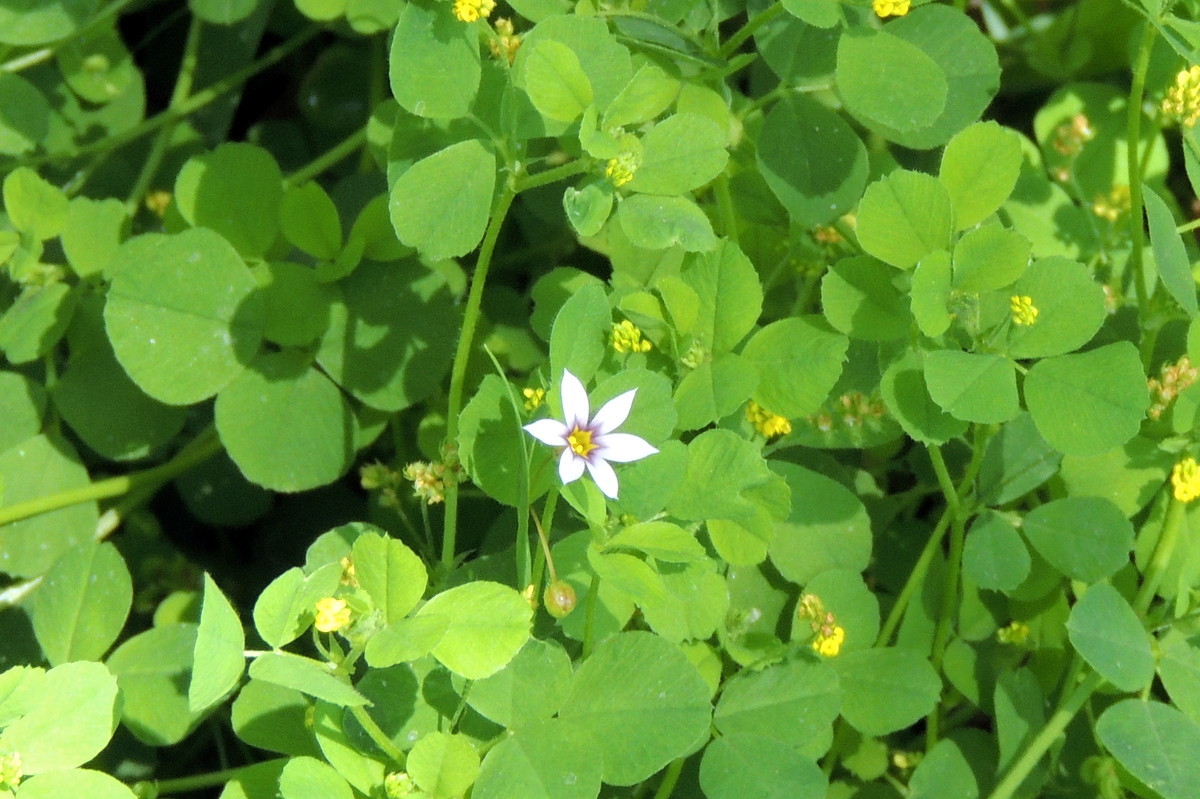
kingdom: Plantae
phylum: Tracheophyta
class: Liliopsida
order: Asparagales
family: Iridaceae
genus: Sisyrinchium
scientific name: Sisyrinchium micranthum
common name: Bermuda pigroot
